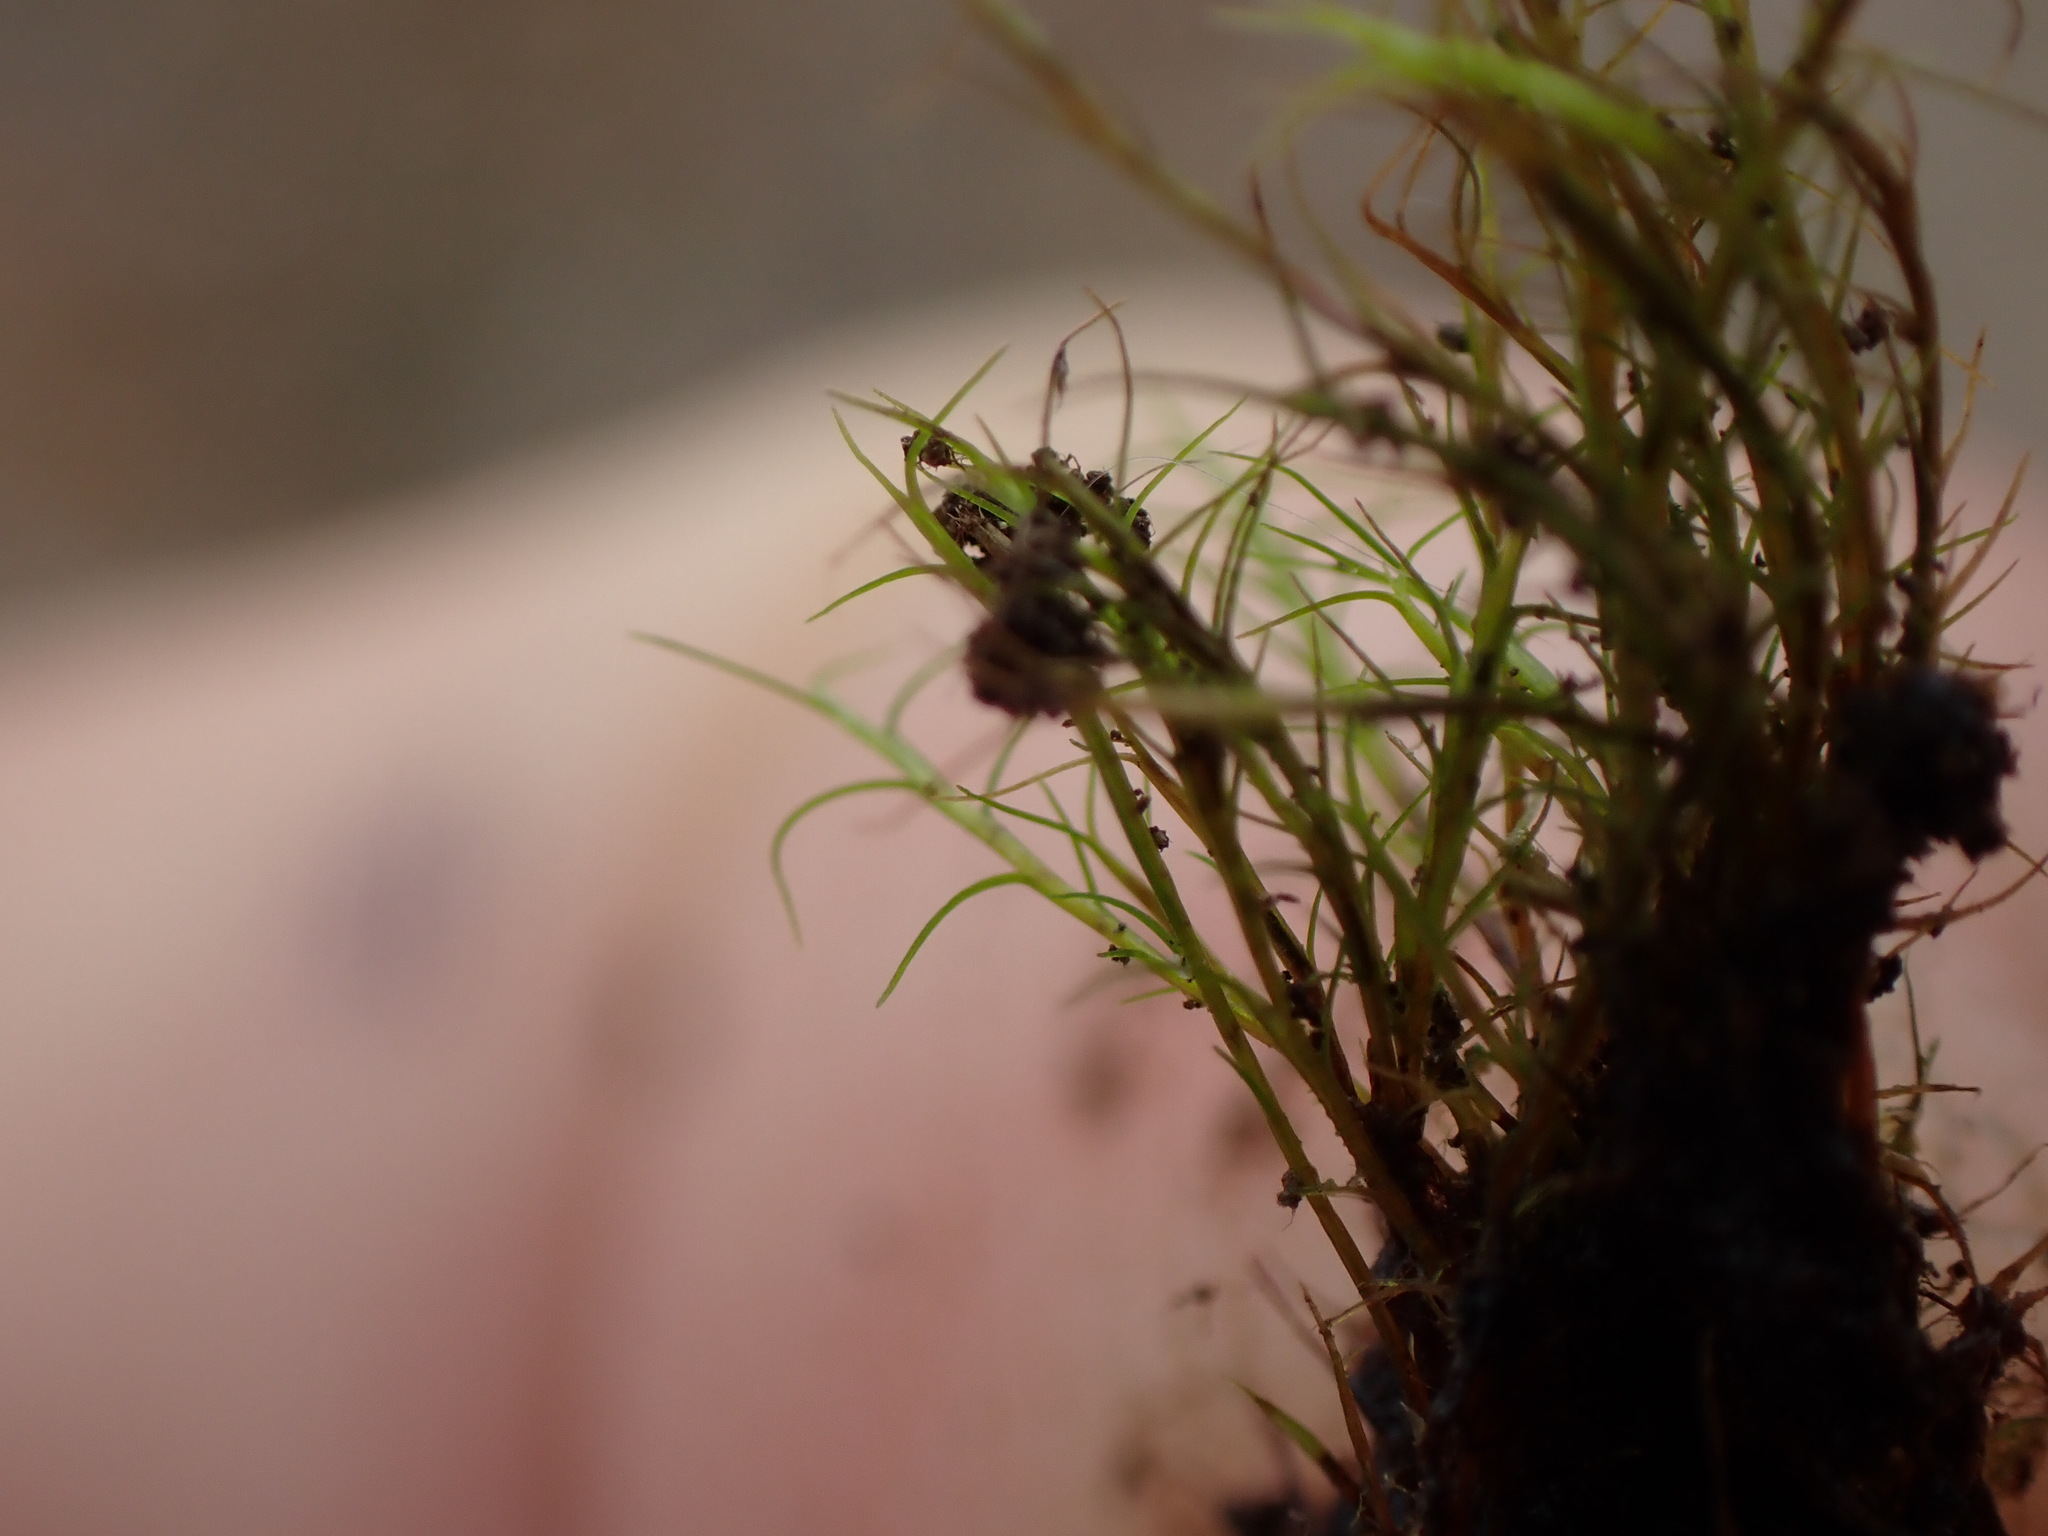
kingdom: Plantae
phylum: Bryophyta
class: Bryopsida
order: Scouleriales
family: Distichiaceae
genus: Distichium
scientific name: Distichium capillaceum
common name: Erect-fruited iris moss
